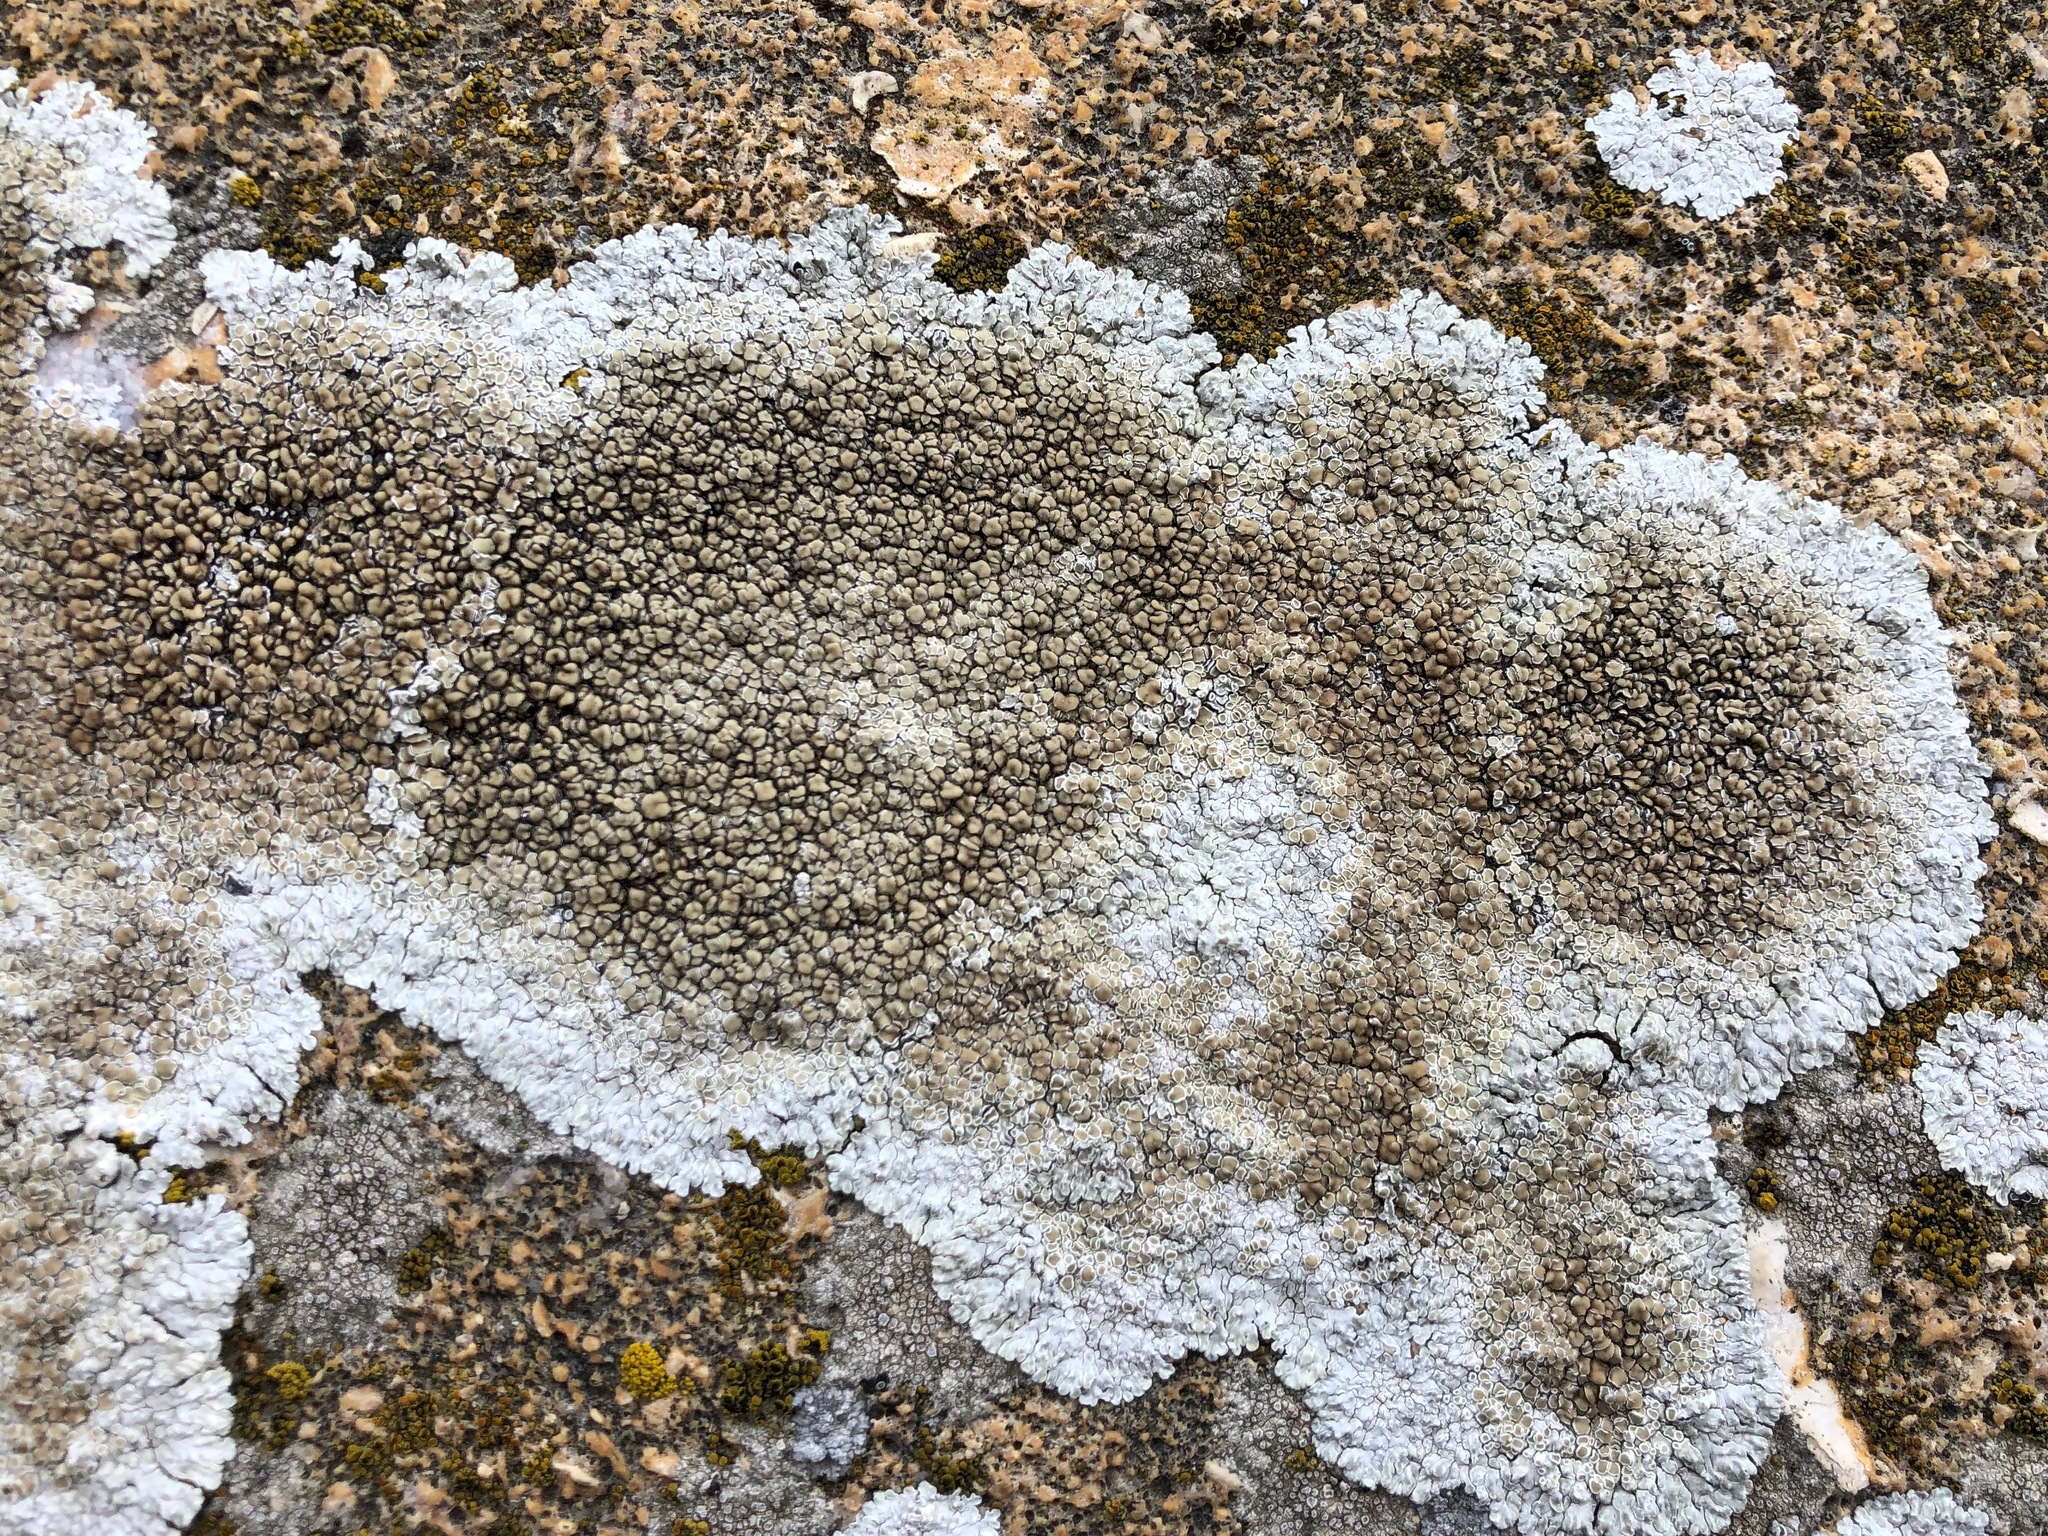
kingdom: Fungi
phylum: Ascomycota
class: Lecanoromycetes
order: Lecanorales
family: Lecanoraceae
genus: Protoparmeliopsis
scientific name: Protoparmeliopsis muralis
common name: Stonewall rim lichen
